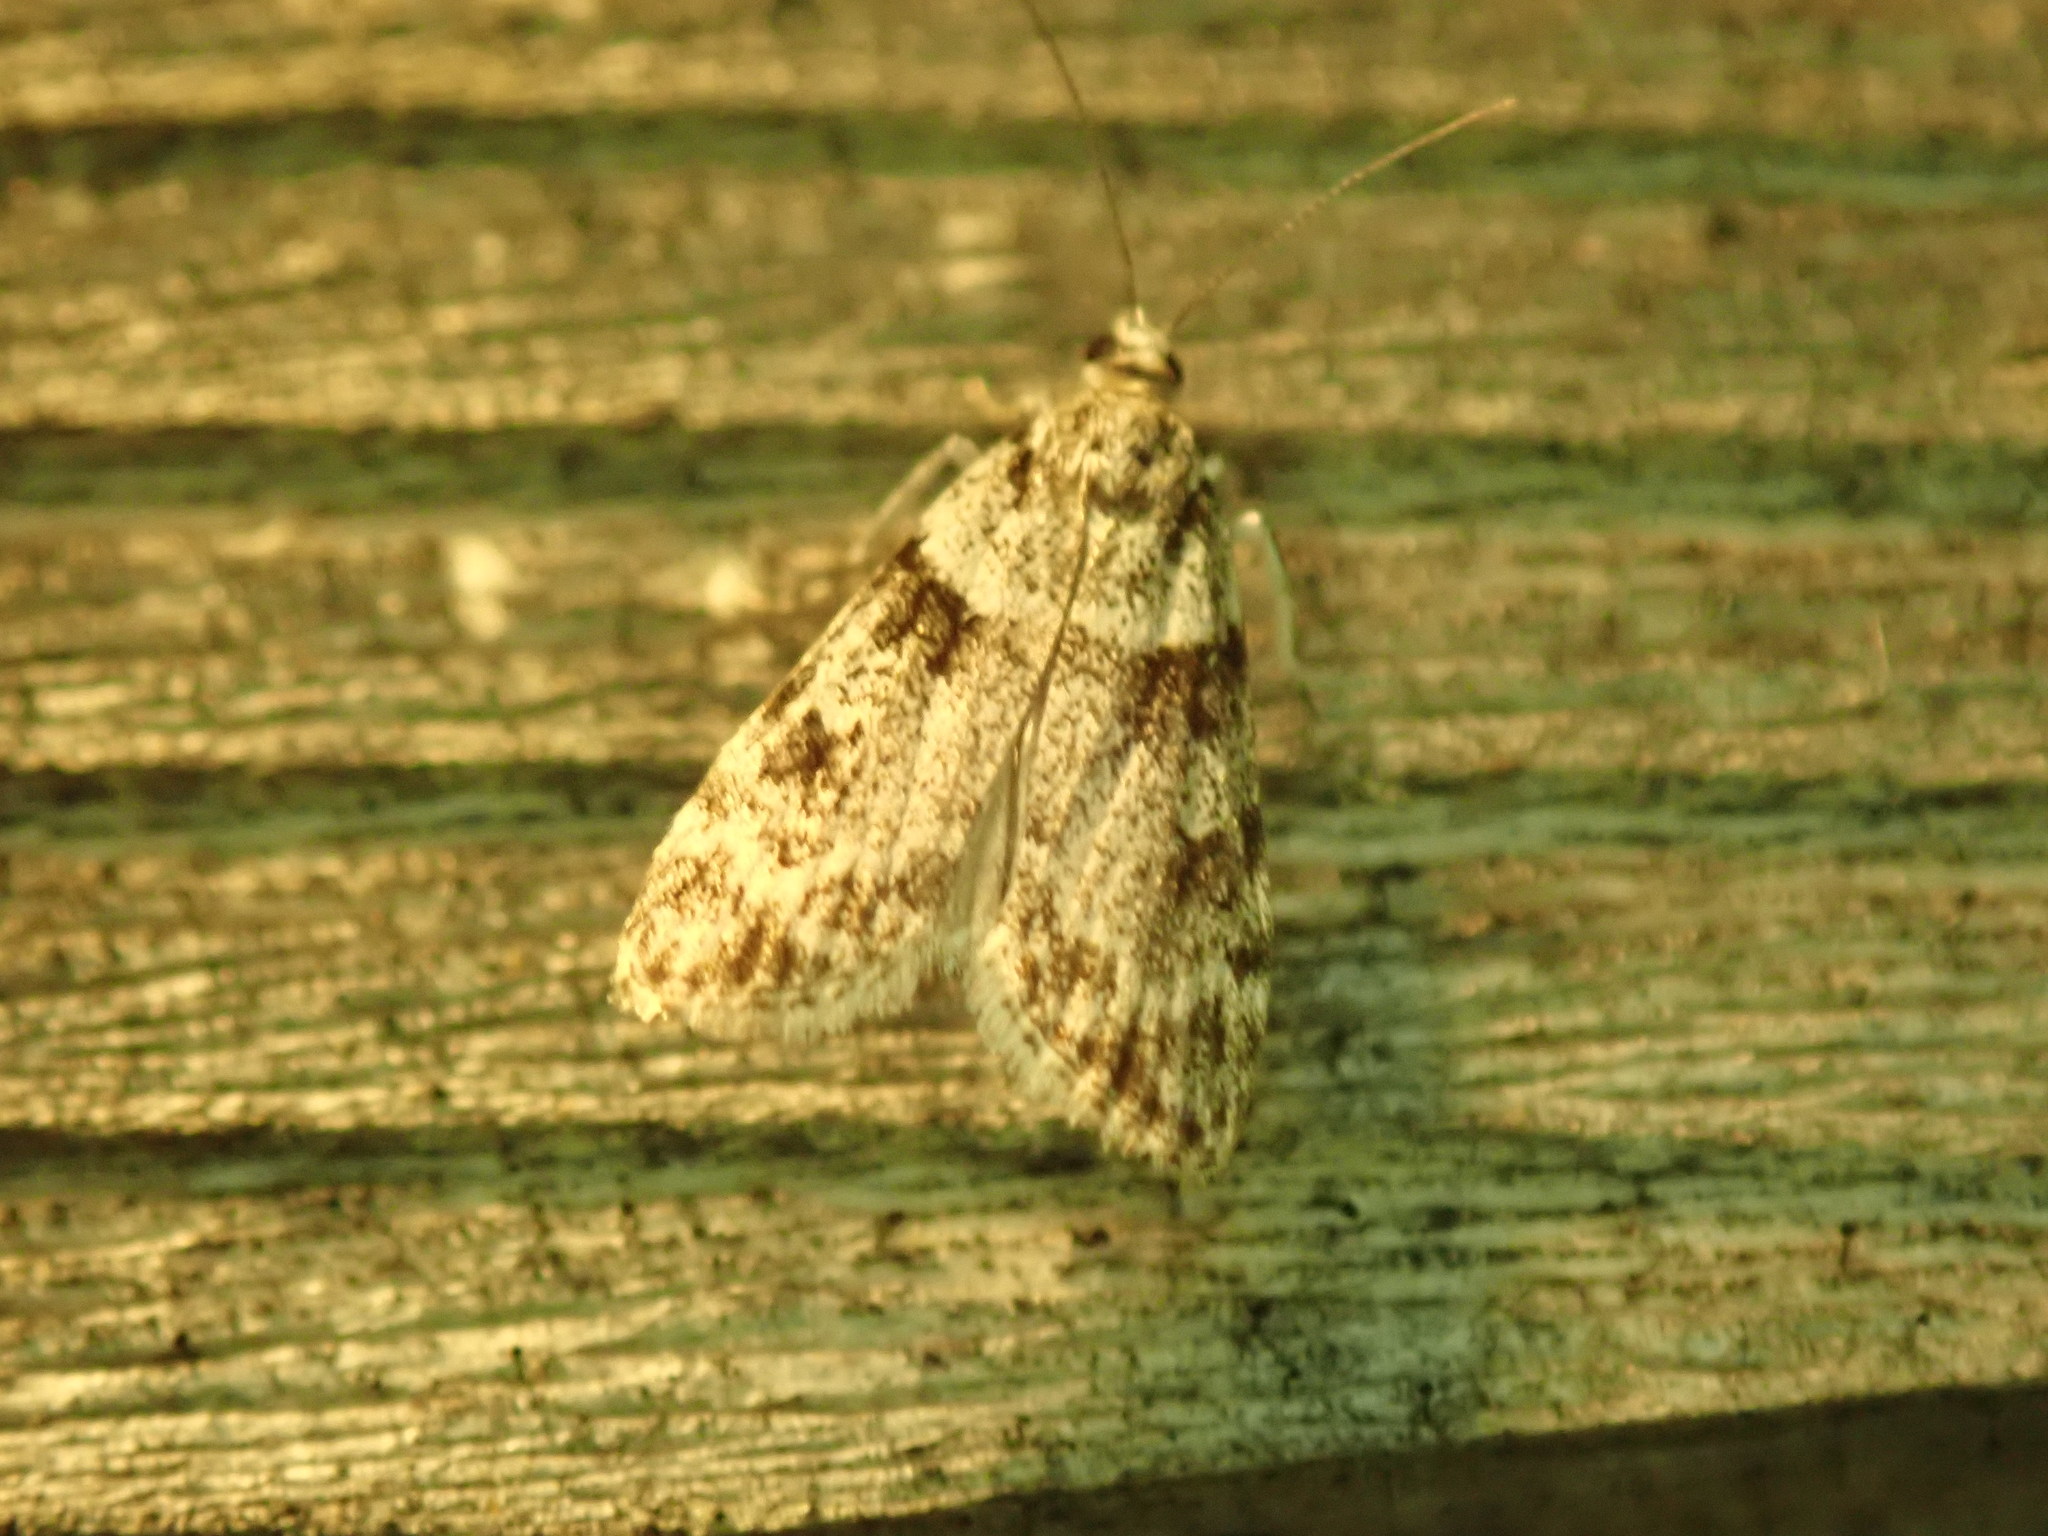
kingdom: Animalia
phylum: Arthropoda
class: Insecta
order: Lepidoptera
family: Crambidae
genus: Scoparia
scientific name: Scoparia biplagialis
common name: Double-striped scoparia moth
